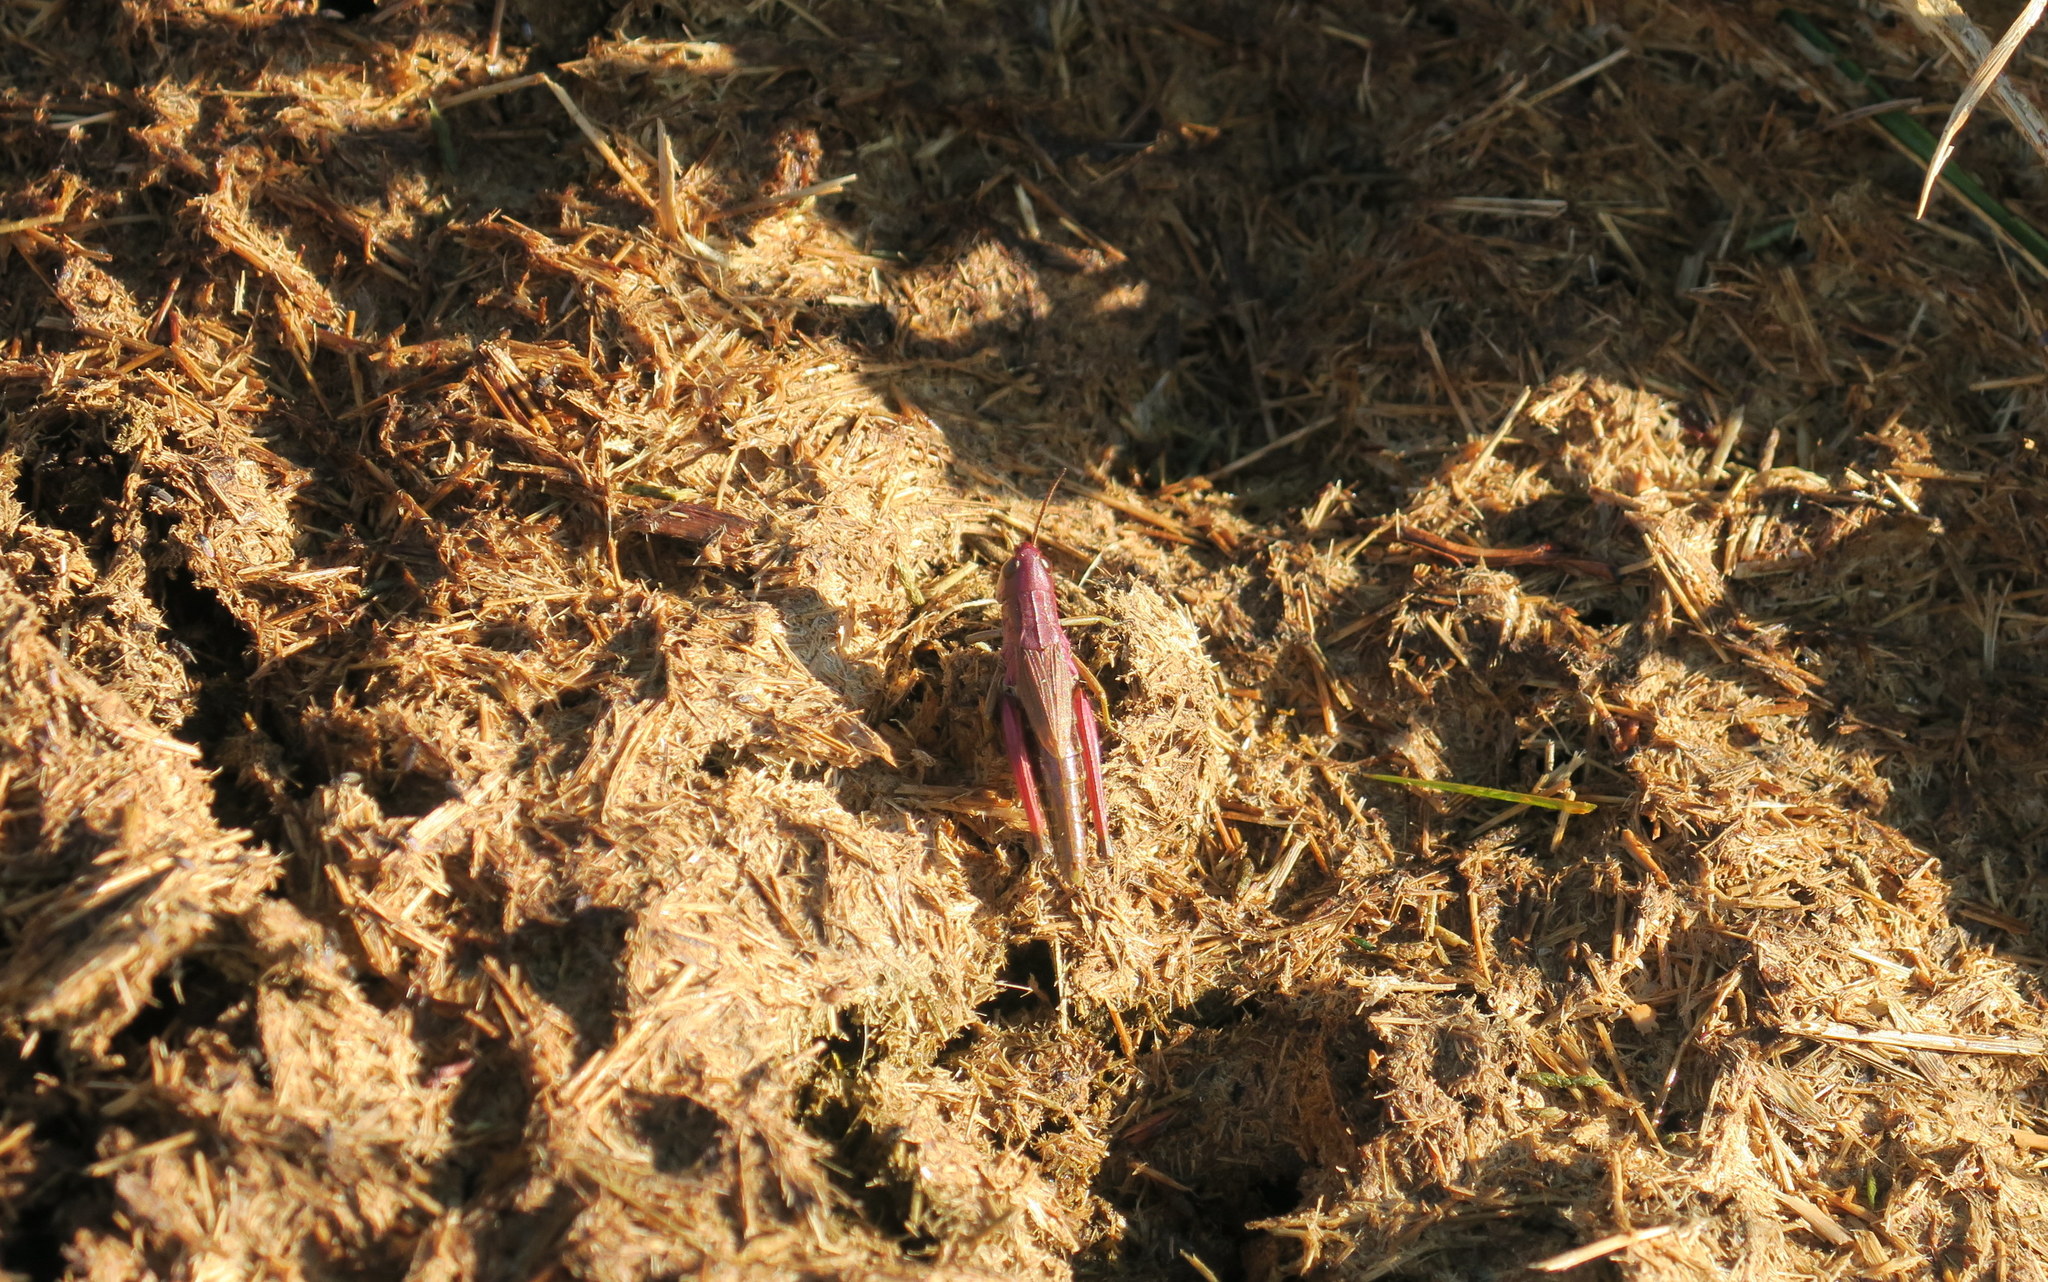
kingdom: Animalia
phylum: Arthropoda
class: Insecta
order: Orthoptera
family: Acrididae
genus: Pseudochorthippus
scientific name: Pseudochorthippus parallelus
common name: Meadow grasshopper
